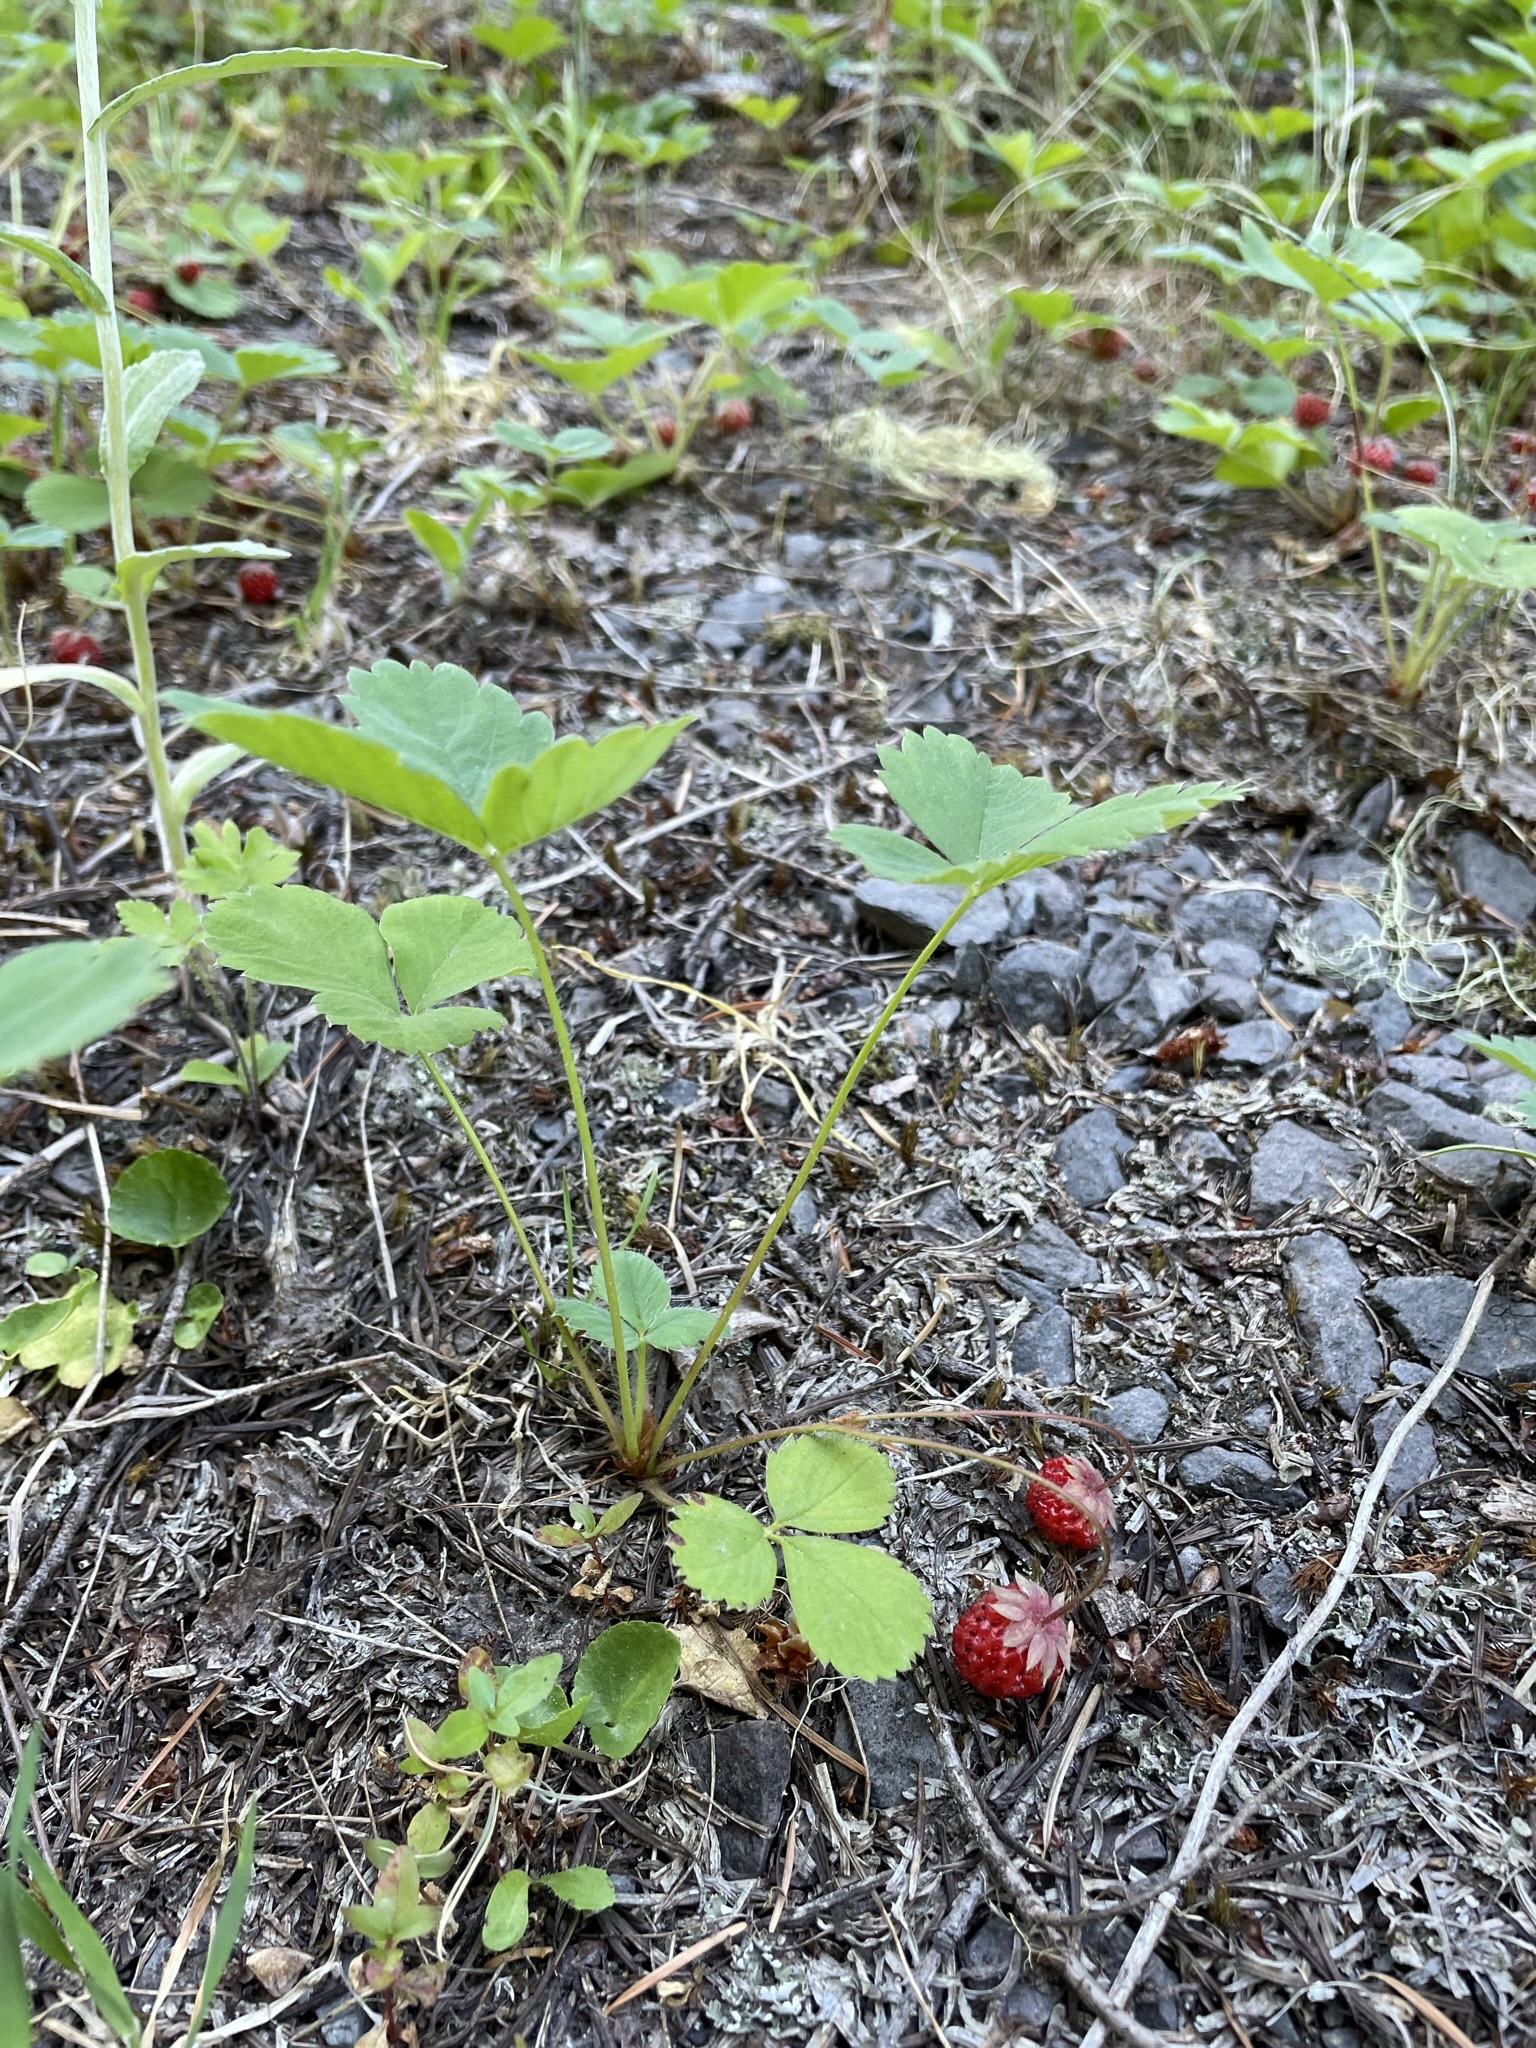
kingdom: Plantae
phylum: Tracheophyta
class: Magnoliopsida
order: Rosales
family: Rosaceae
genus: Fragaria
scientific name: Fragaria virginiana
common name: Thickleaved wild strawberry
